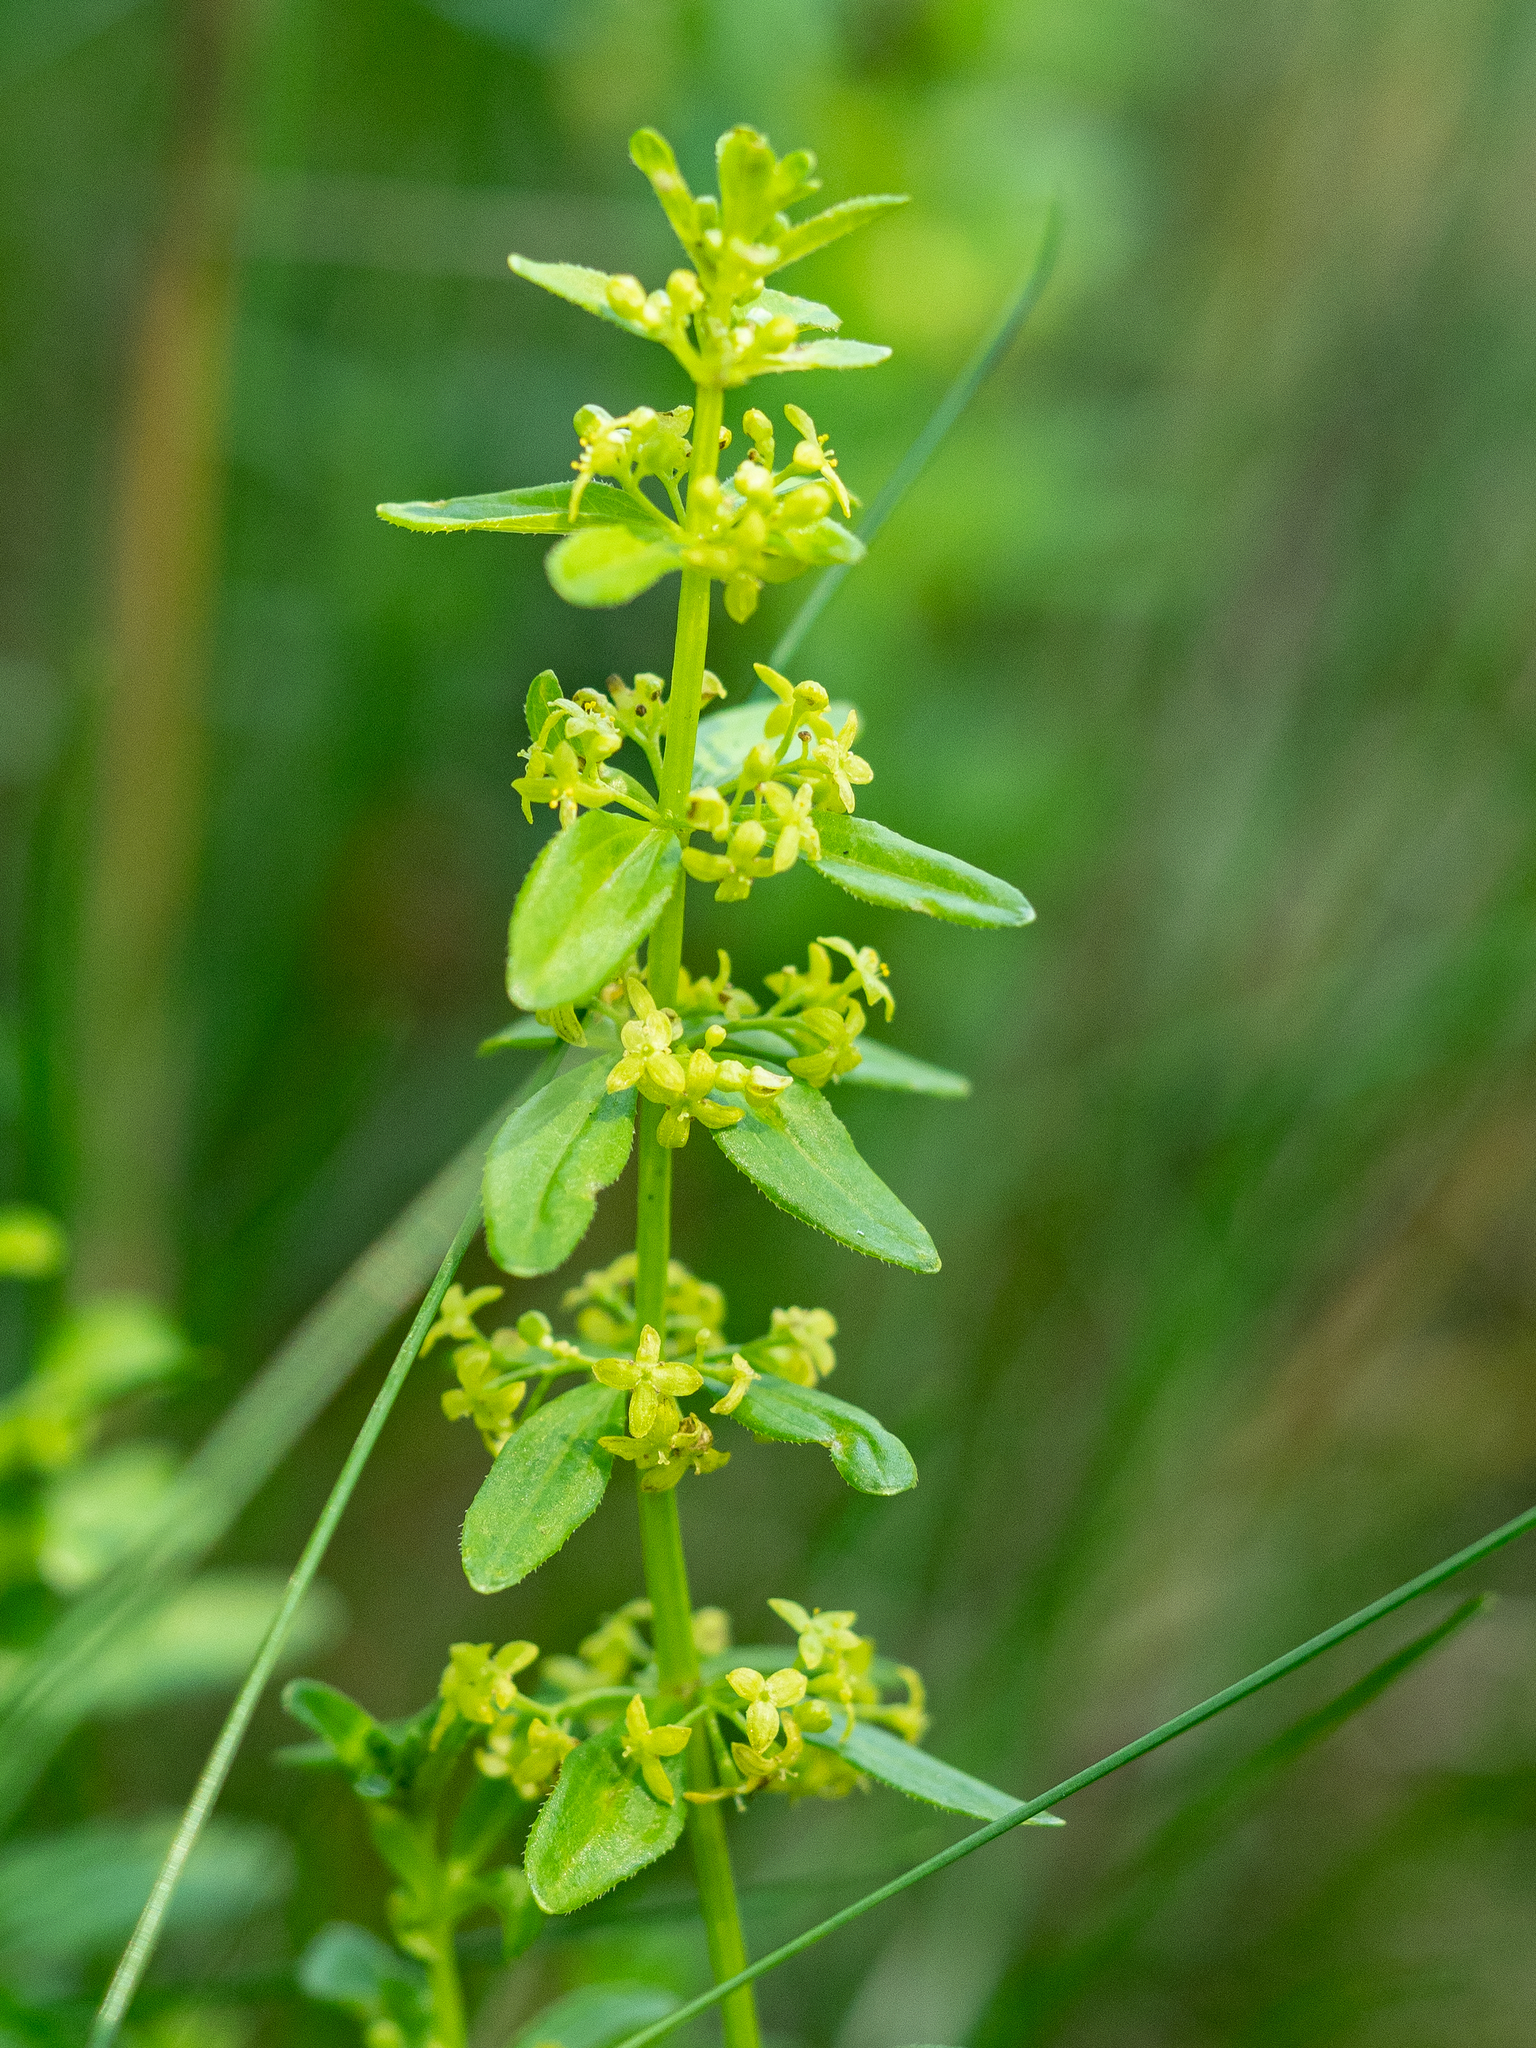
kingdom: Plantae
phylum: Tracheophyta
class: Magnoliopsida
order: Gentianales
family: Rubiaceae
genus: Cruciata
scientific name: Cruciata glabra
